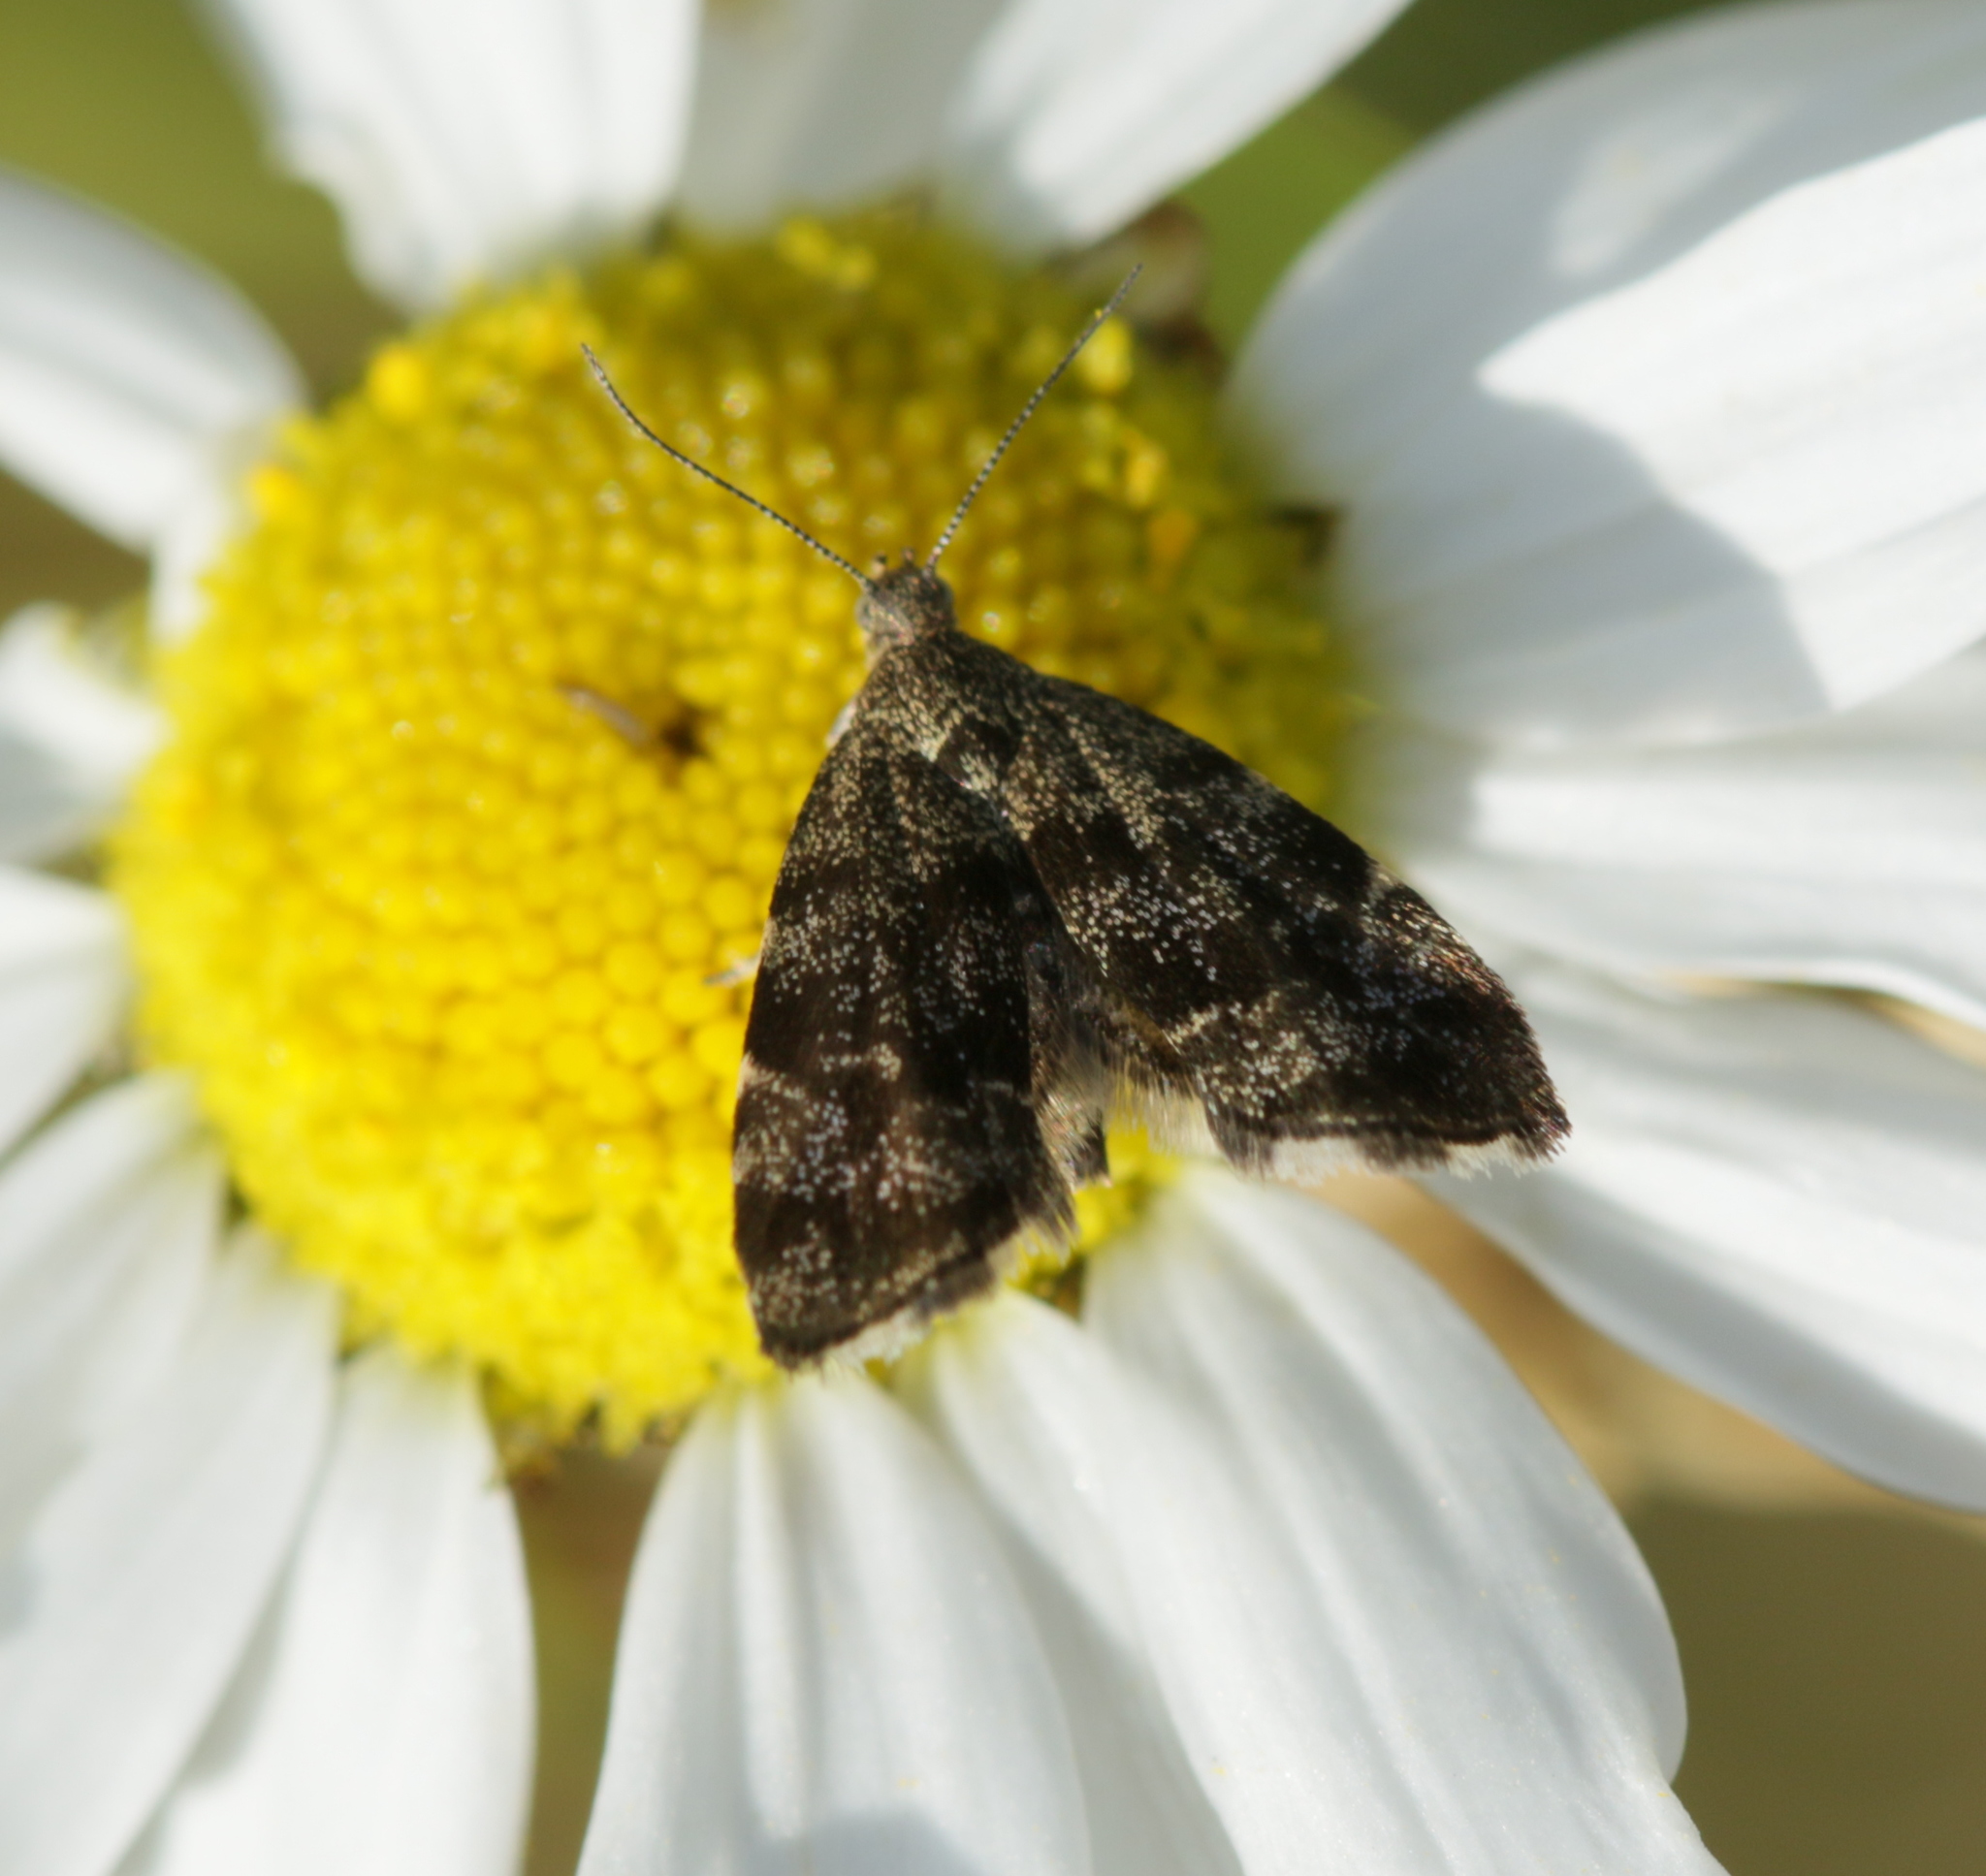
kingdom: Animalia
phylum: Arthropoda
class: Insecta
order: Lepidoptera
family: Choreutidae
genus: Anthophila
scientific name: Anthophila fabriciana
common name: Nettle-tap
